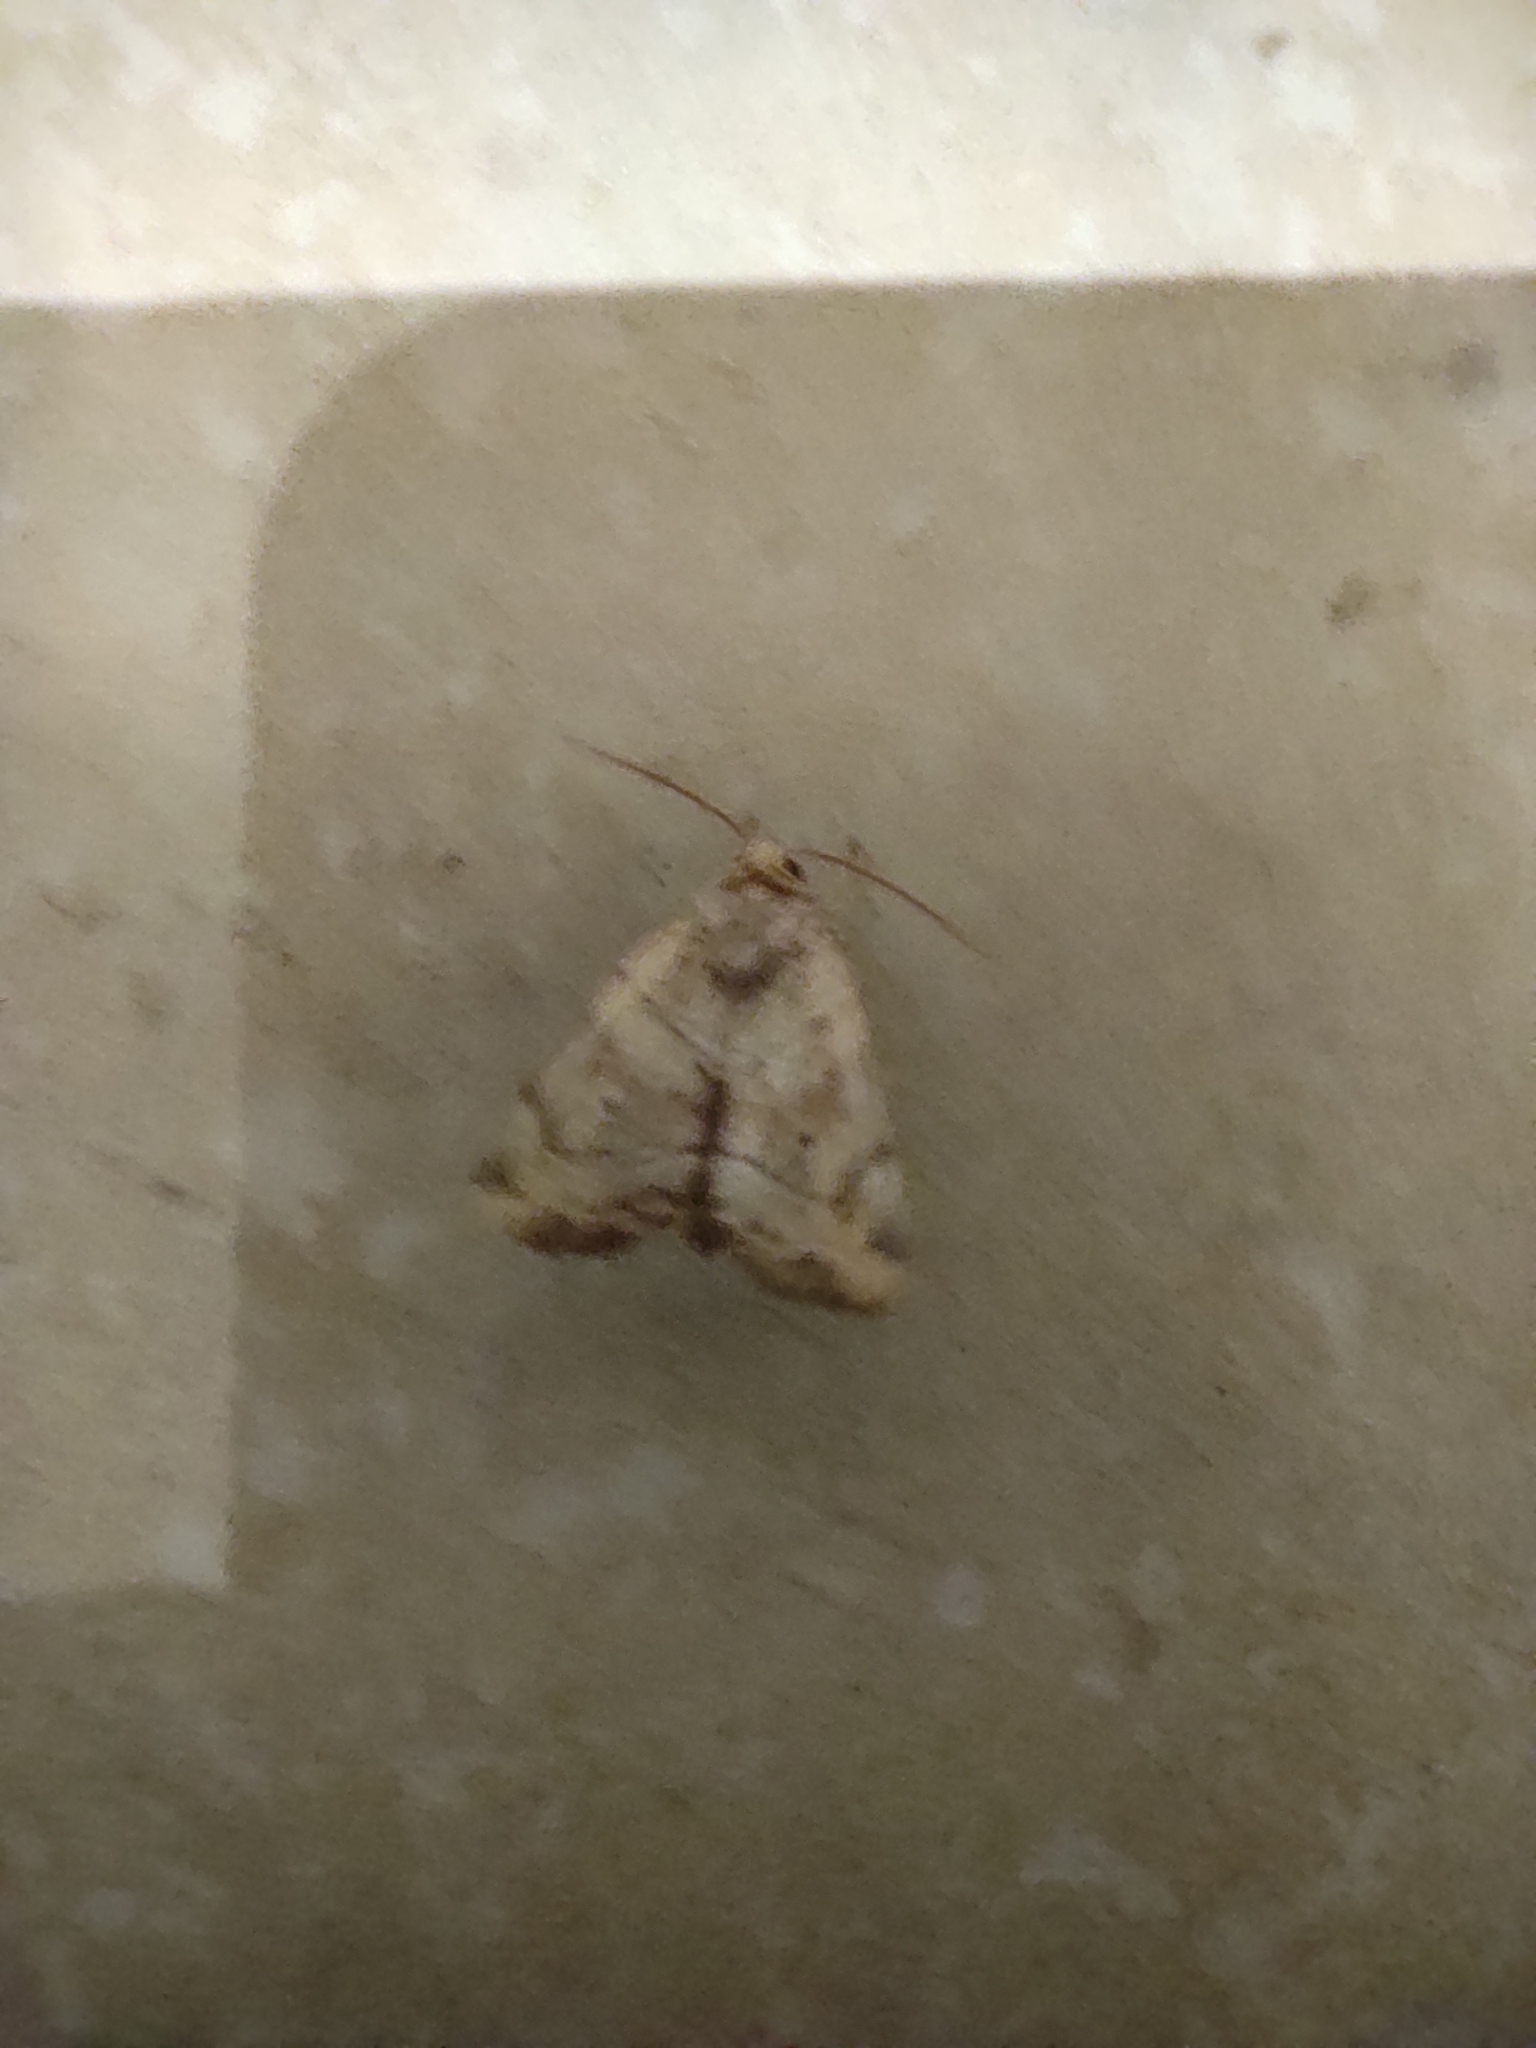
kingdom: Animalia
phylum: Arthropoda
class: Insecta
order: Lepidoptera
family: Noctuidae
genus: Cosmia
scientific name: Cosmia trapezina
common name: Dun-bar
